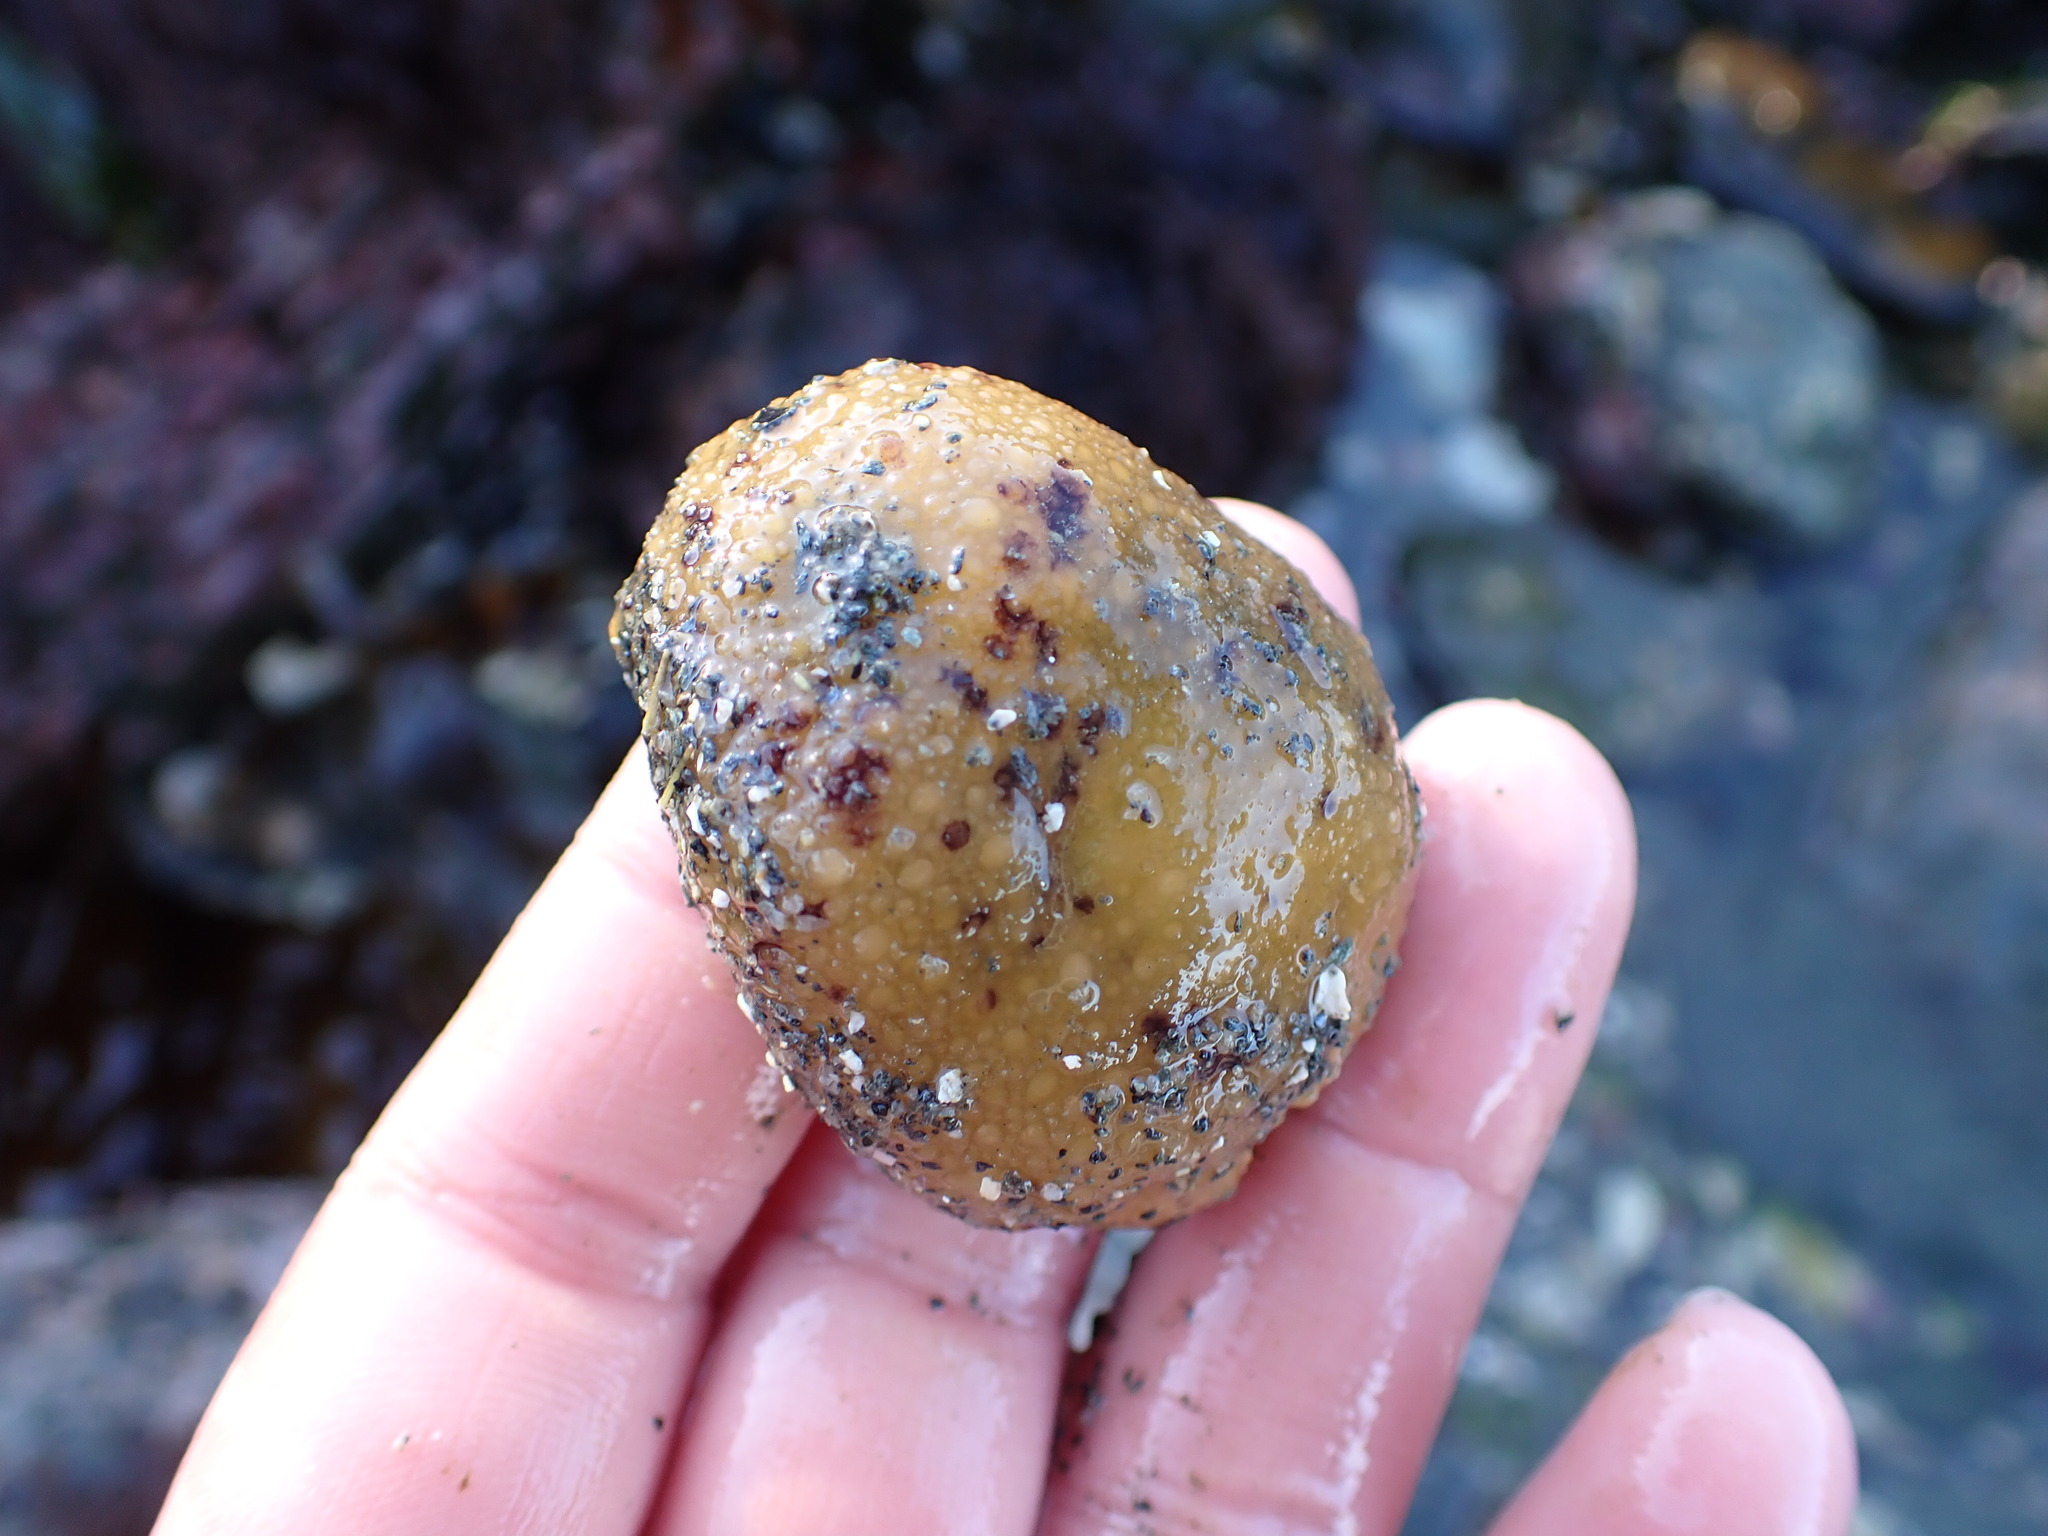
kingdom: Animalia
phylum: Mollusca
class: Gastropoda
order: Nudibranchia
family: Dorididae
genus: Doris
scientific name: Doris montereyensis
